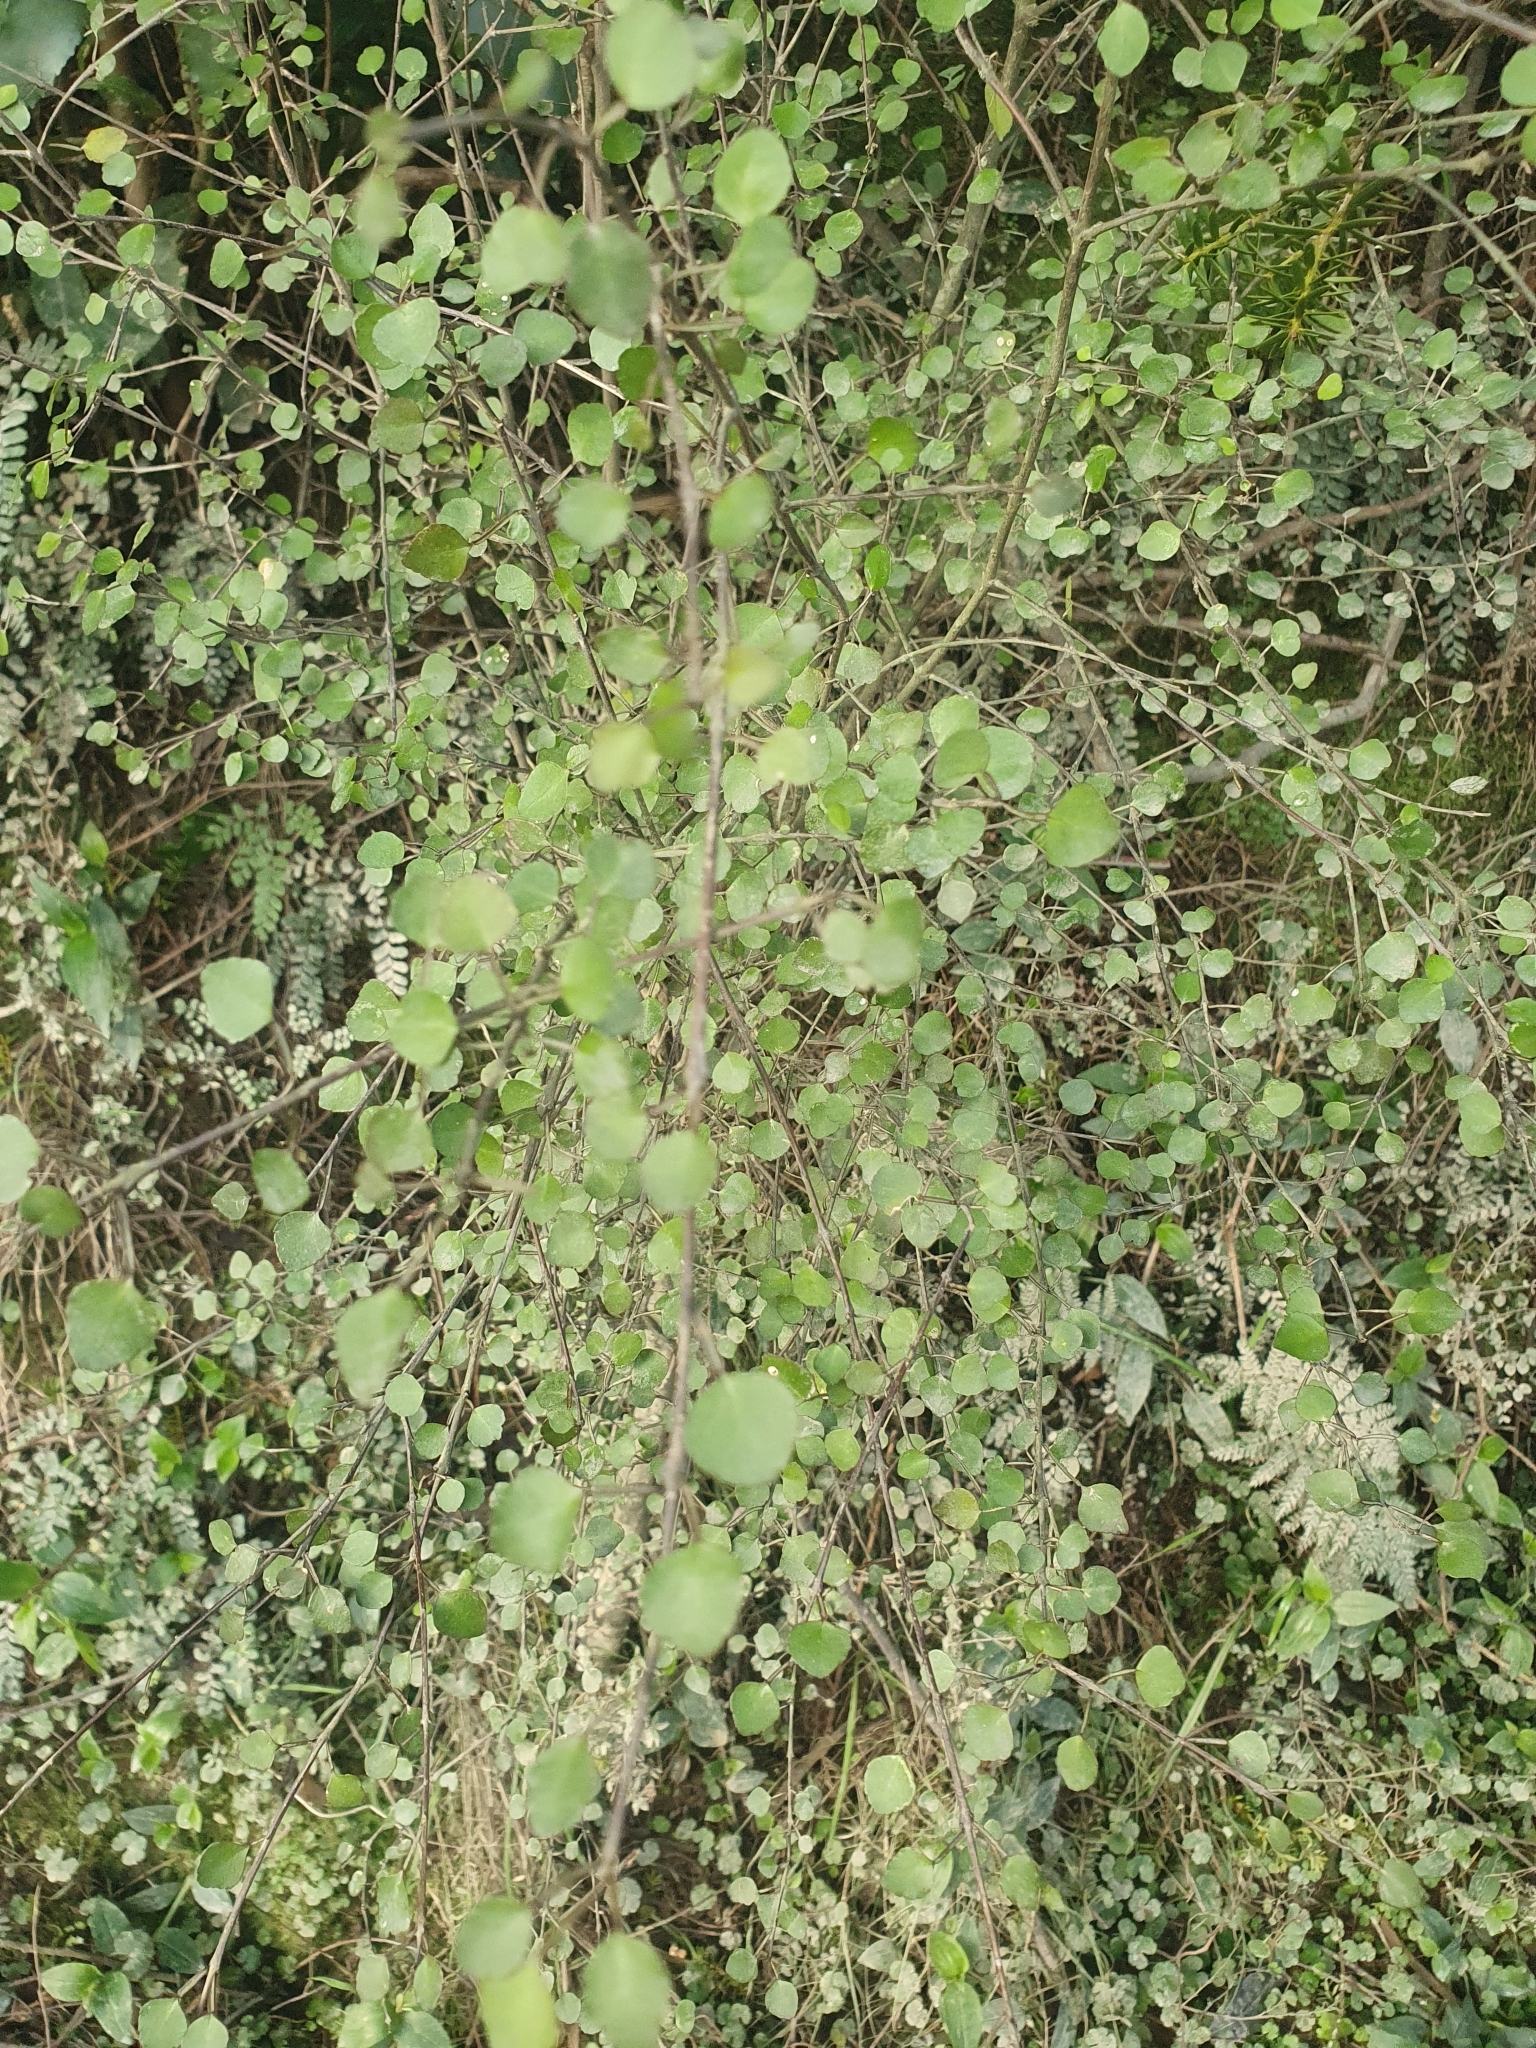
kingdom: Plantae
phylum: Tracheophyta
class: Magnoliopsida
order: Sapindales
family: Rutaceae
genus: Melicope
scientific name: Melicope simplex
